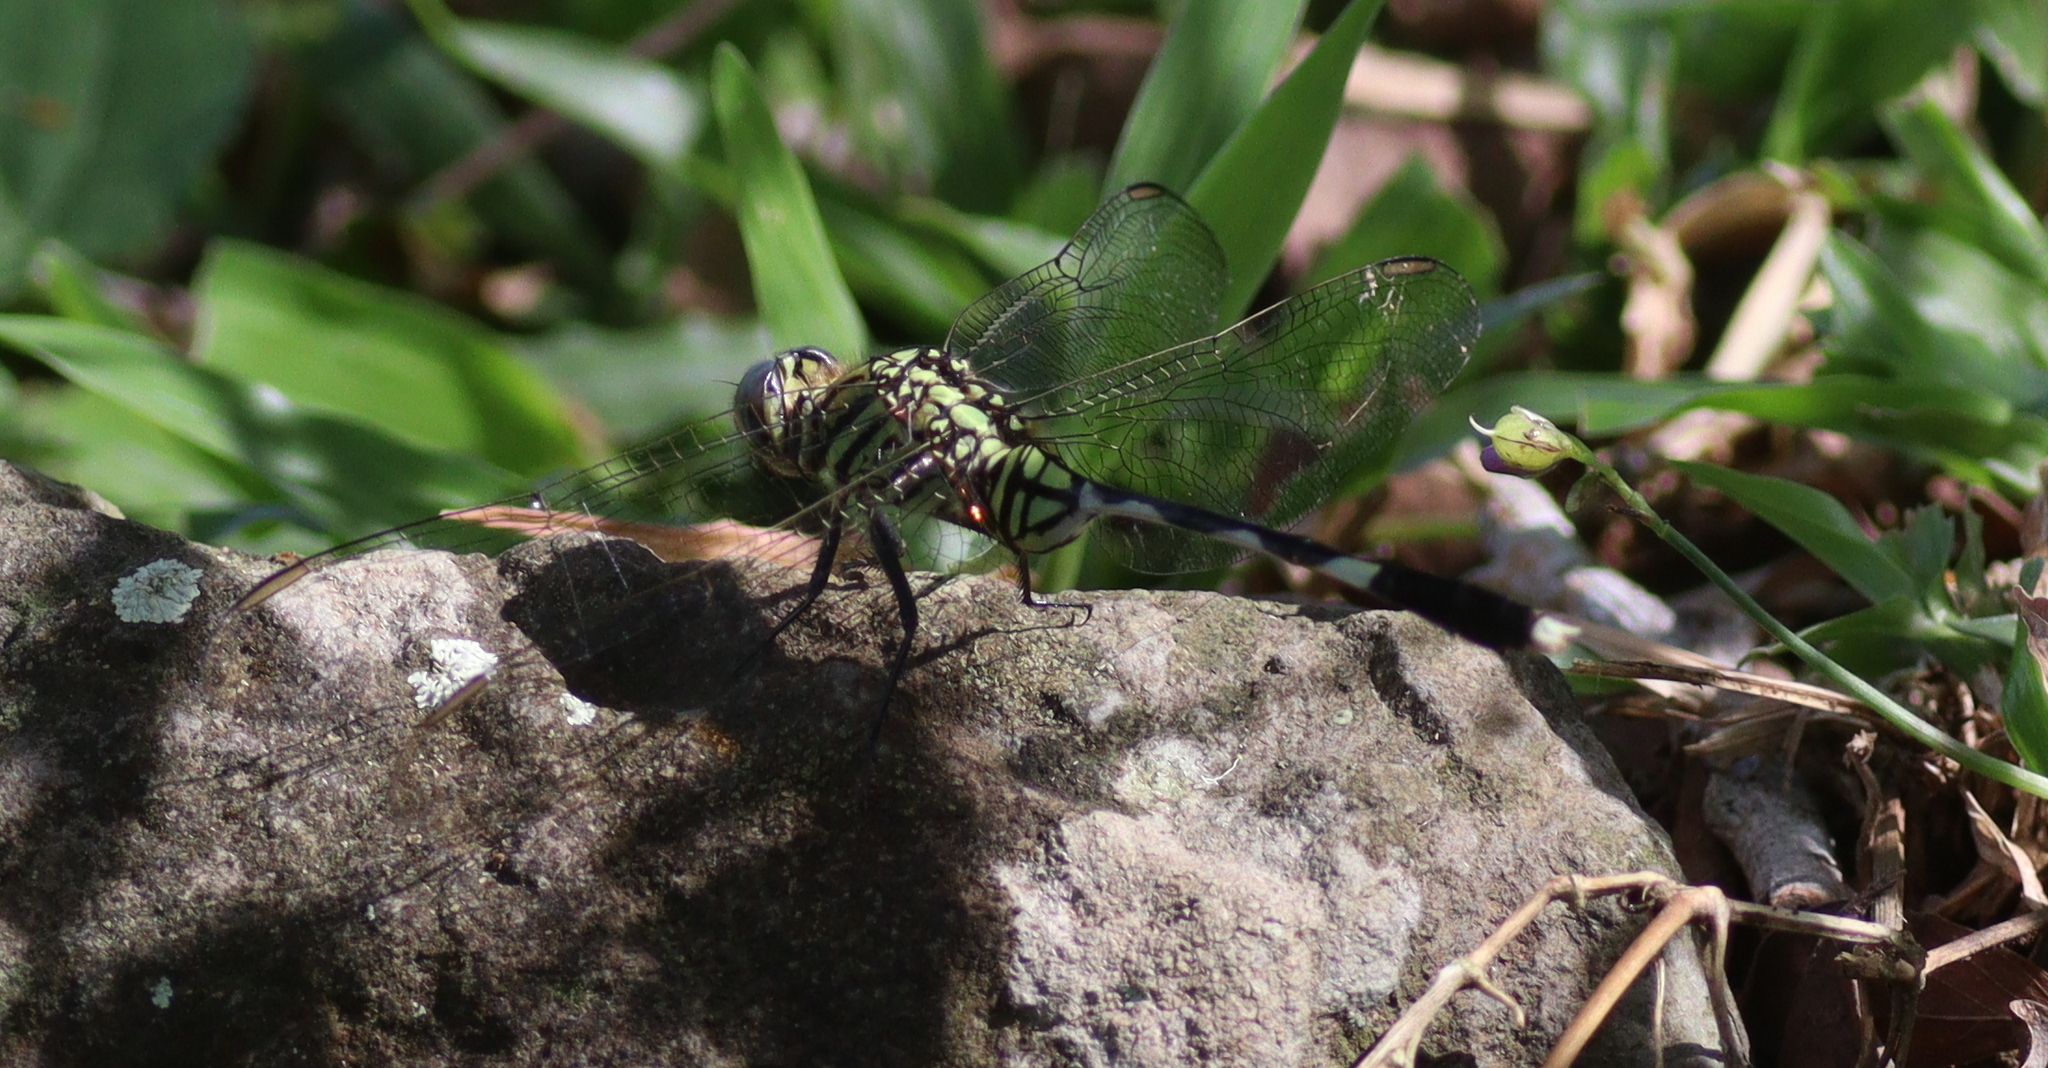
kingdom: Animalia
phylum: Arthropoda
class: Insecta
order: Odonata
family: Libellulidae
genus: Orthetrum
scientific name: Orthetrum sabina
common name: Slender skimmer
